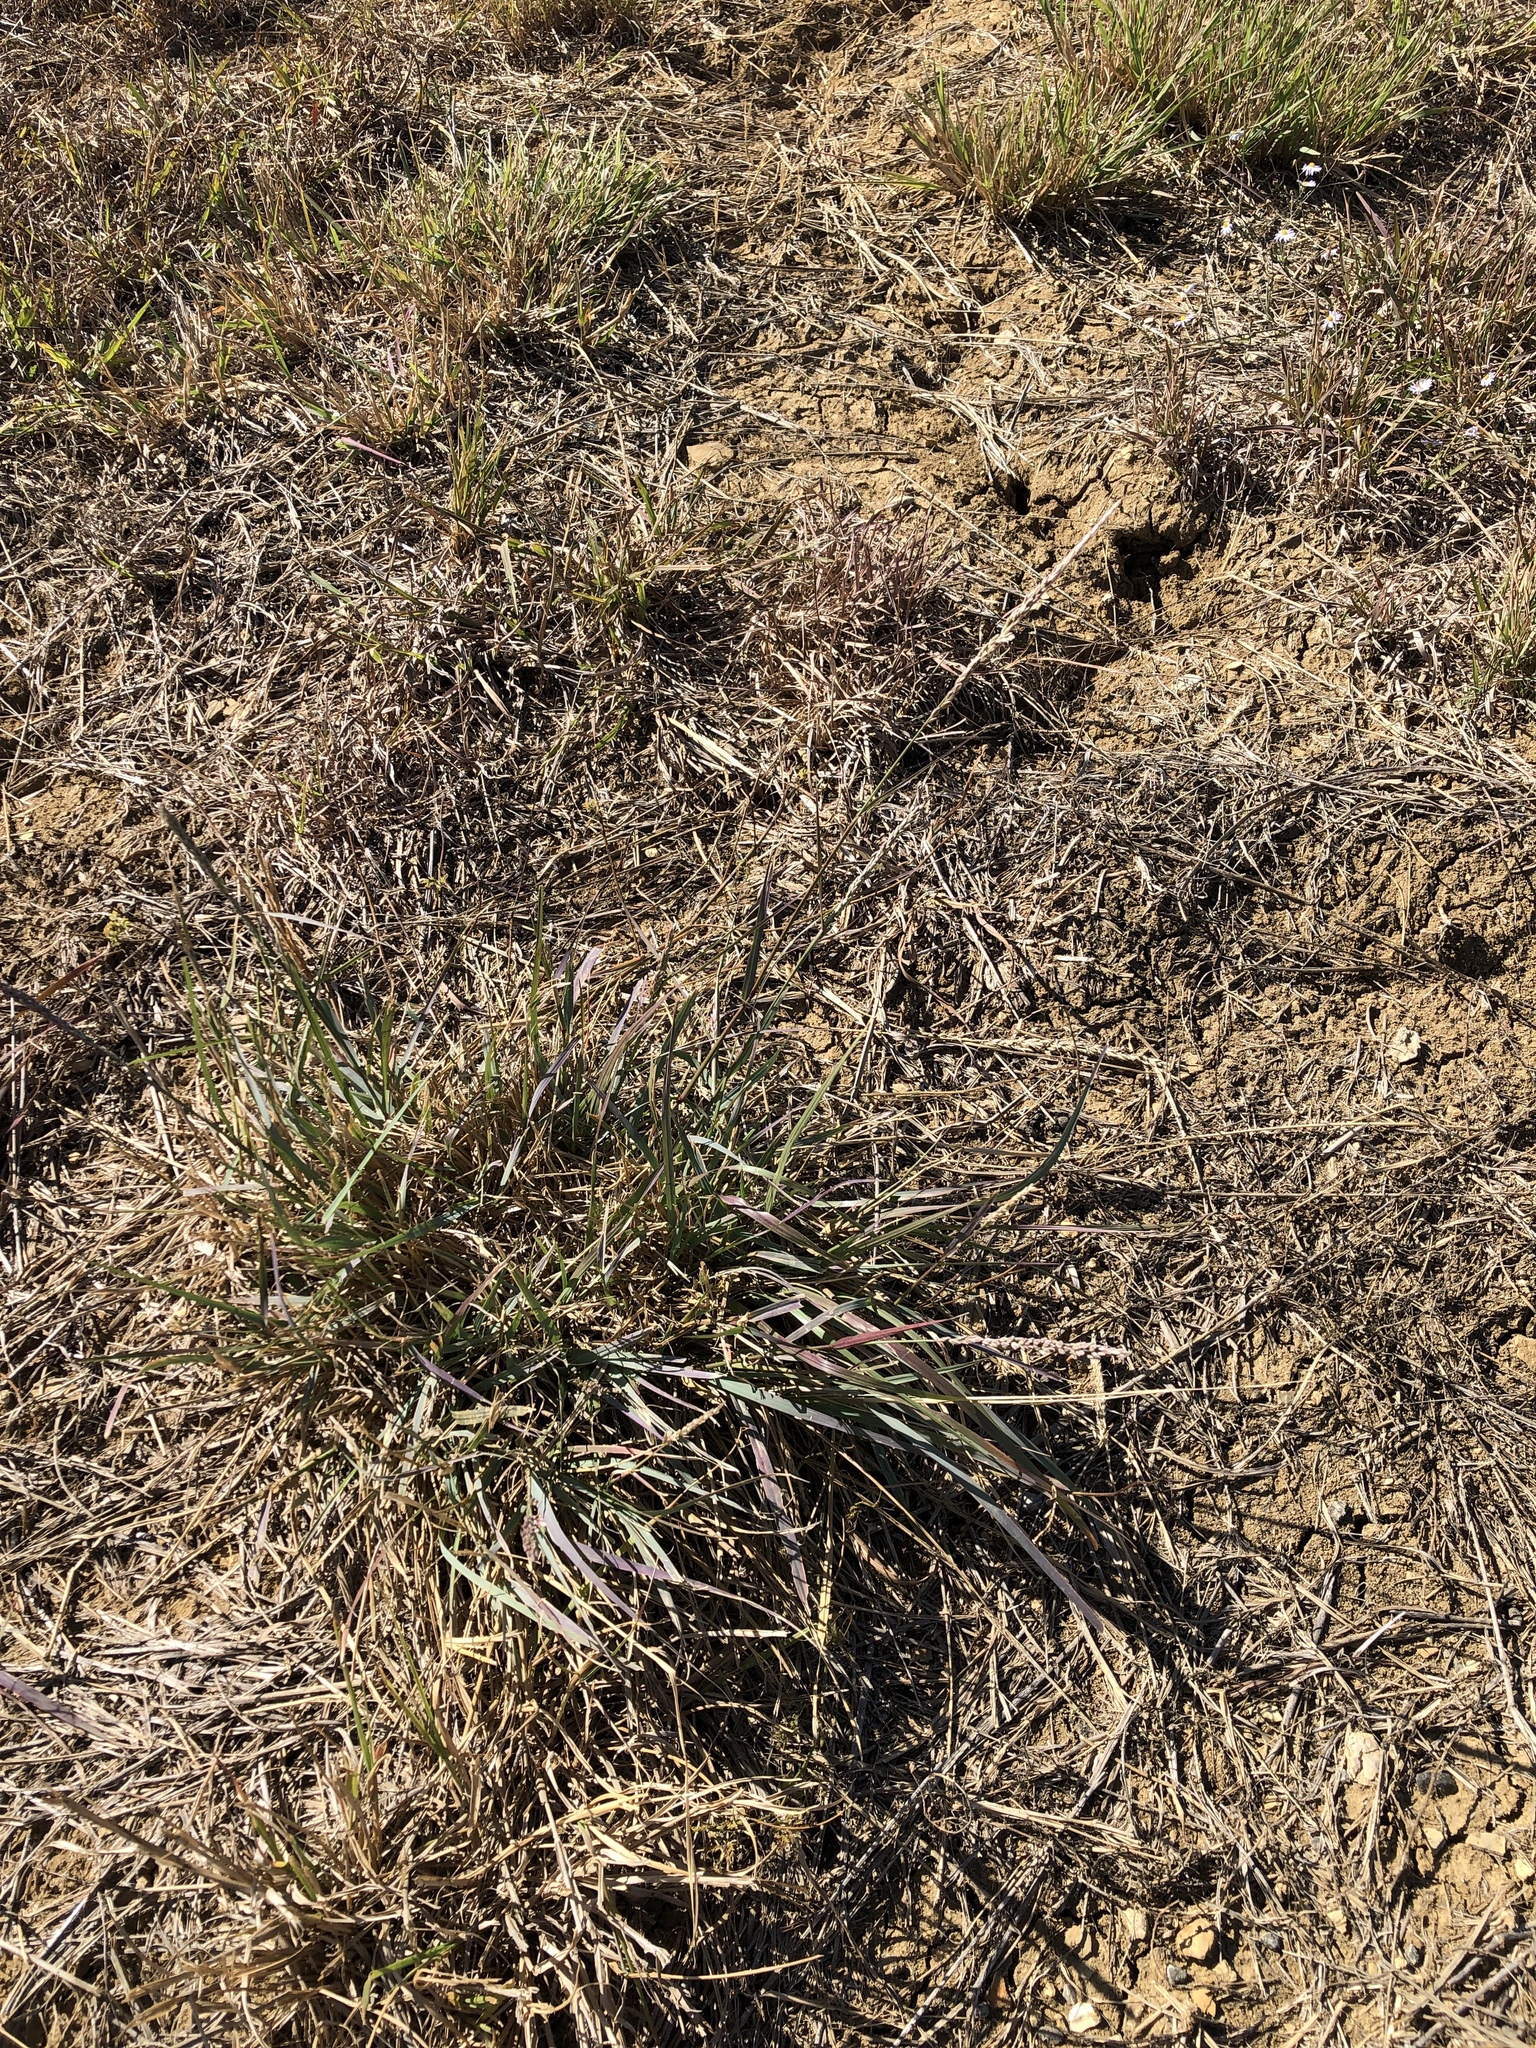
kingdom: Plantae
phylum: Tracheophyta
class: Liliopsida
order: Poales
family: Poaceae
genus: Tridens
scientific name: Tridens albescens
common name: White tridens
